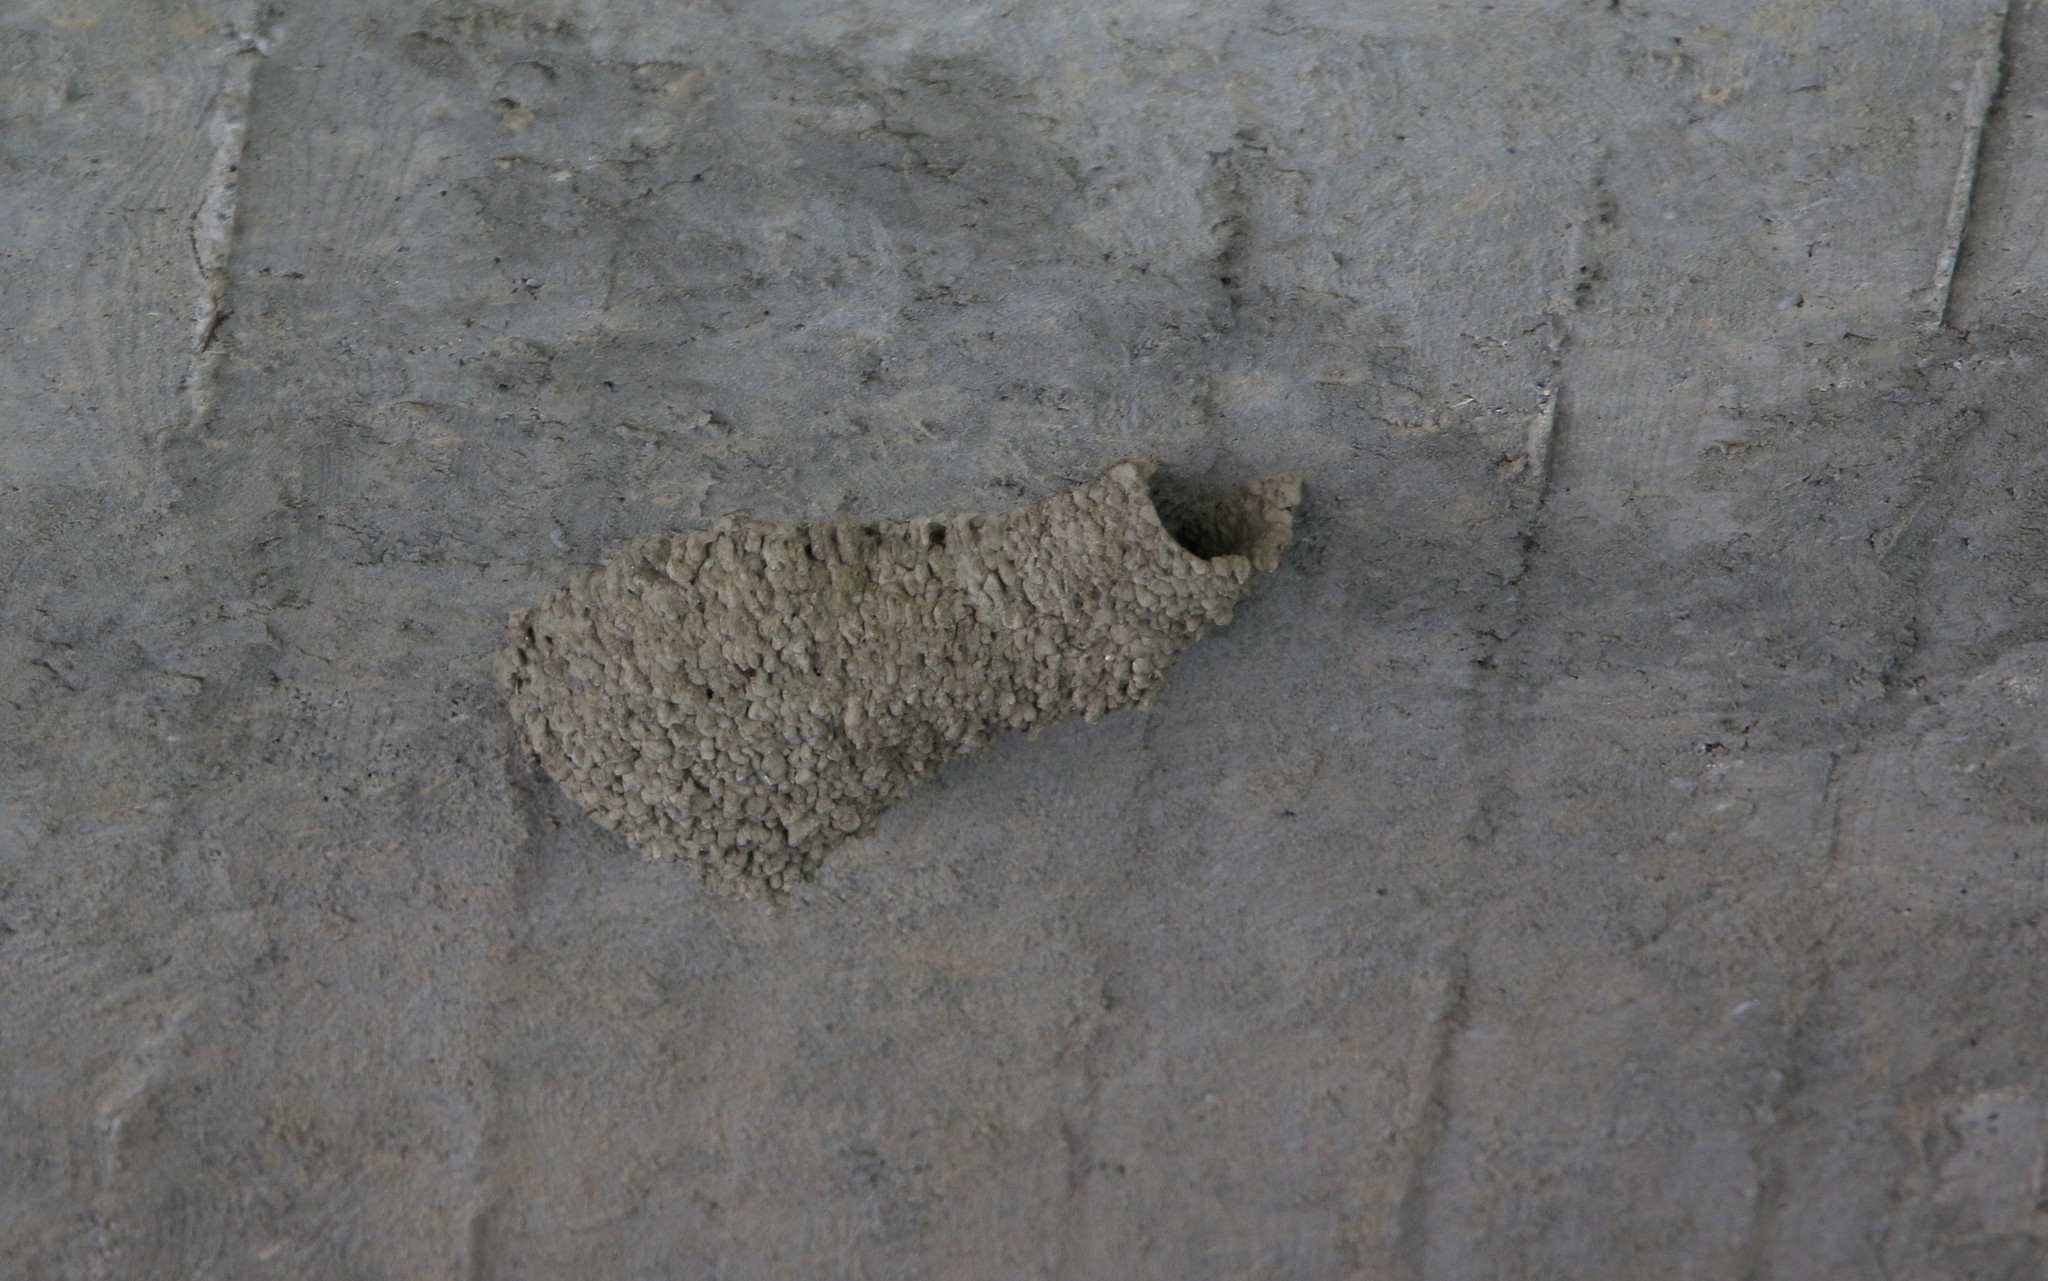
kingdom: Animalia
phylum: Chordata
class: Aves
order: Passeriformes
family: Hirundinidae
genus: Cecropis
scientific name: Cecropis daurica
